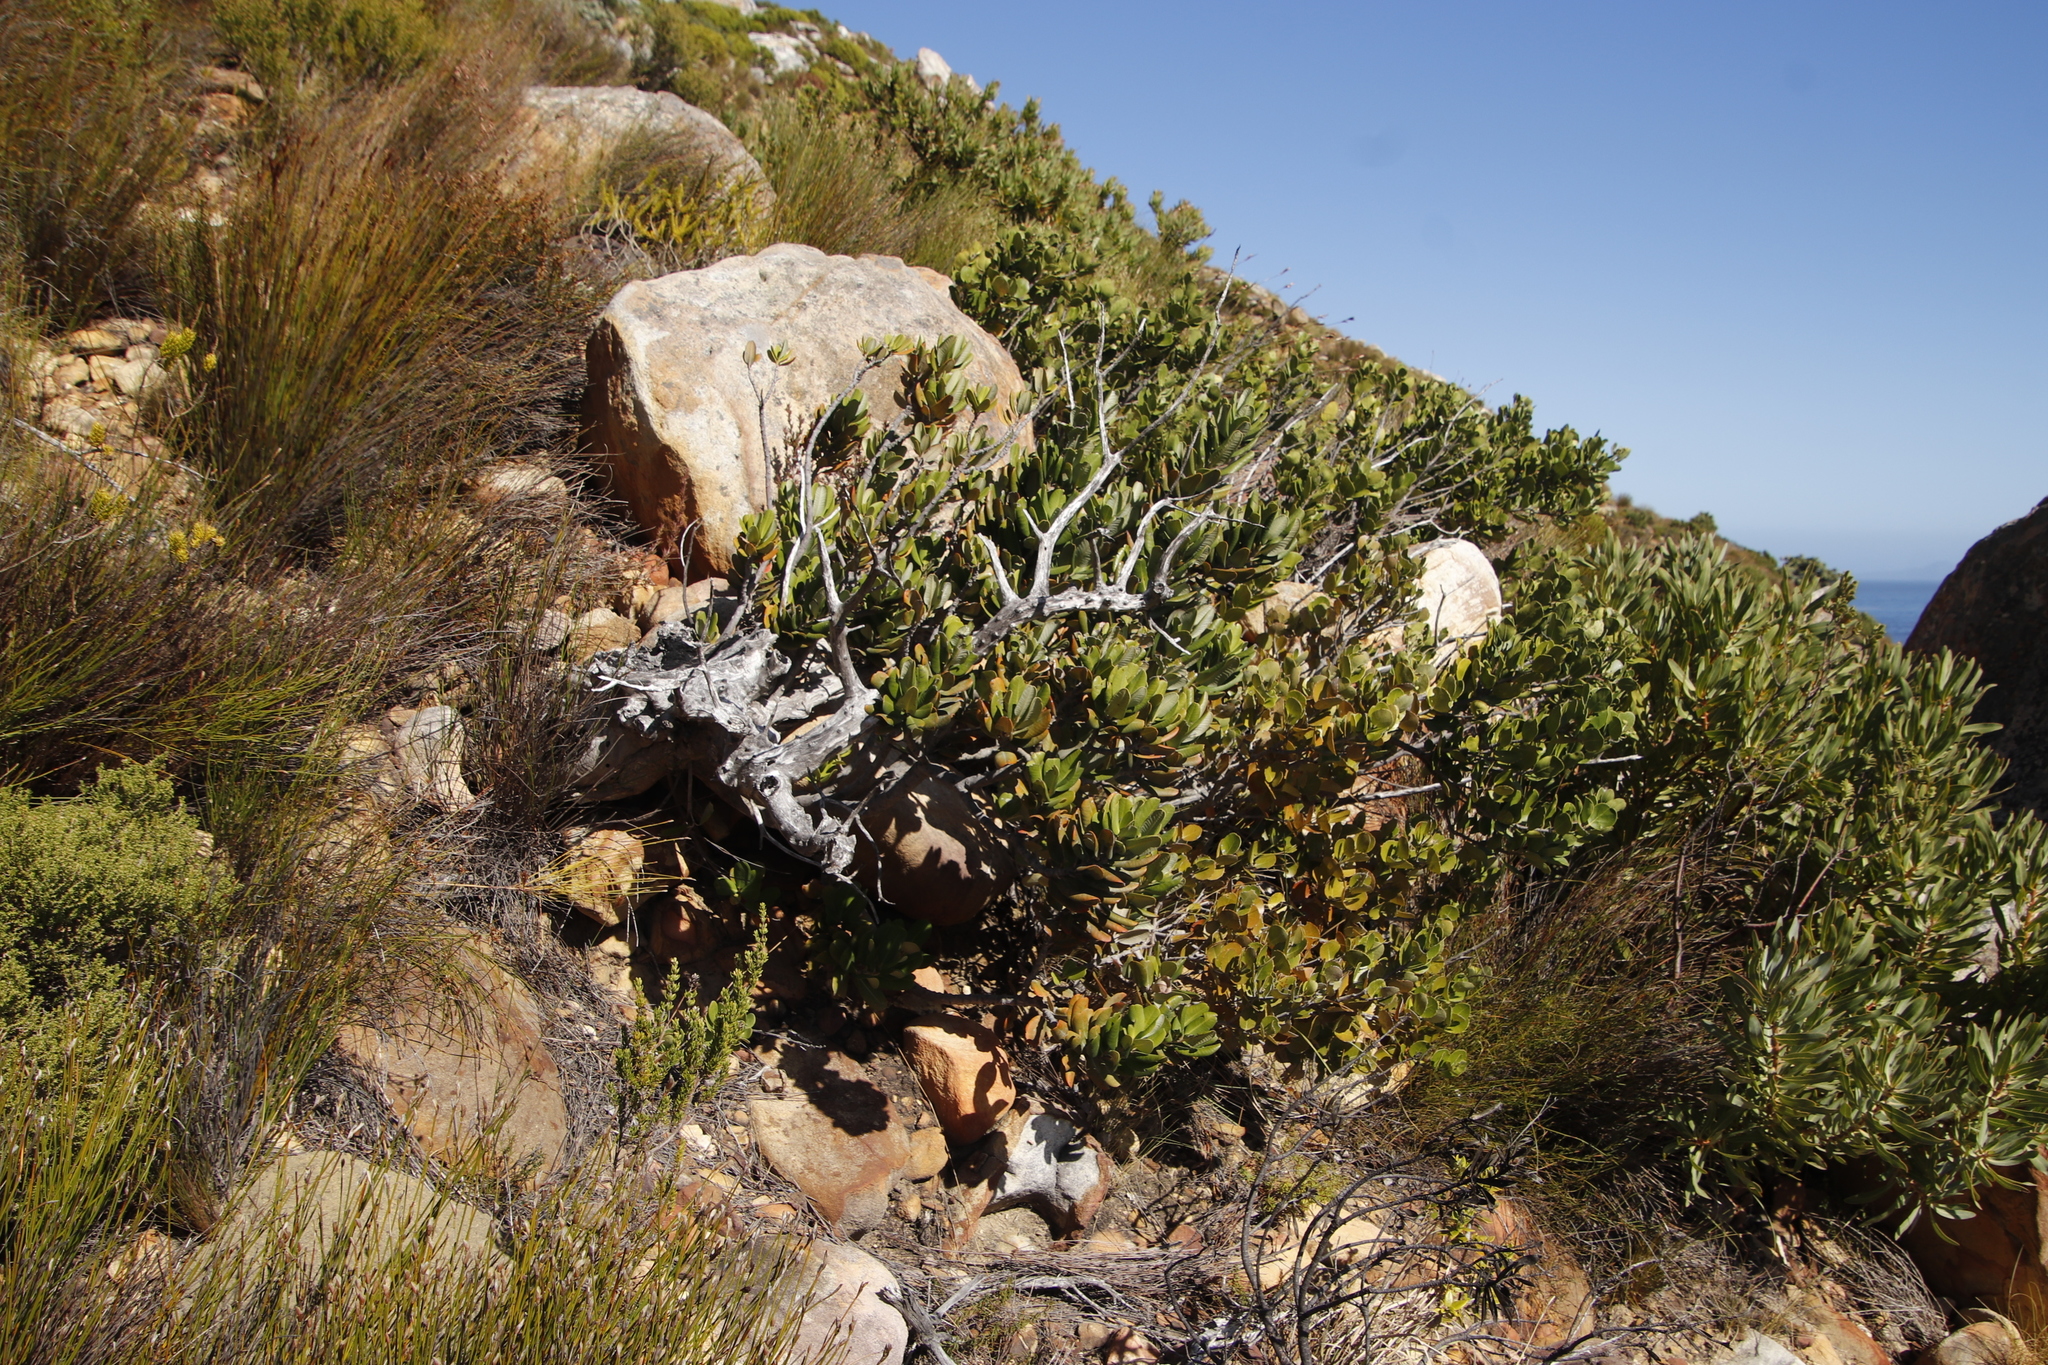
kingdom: Plantae
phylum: Tracheophyta
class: Magnoliopsida
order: Sapindales
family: Anacardiaceae
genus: Heeria
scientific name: Heeria argentea
